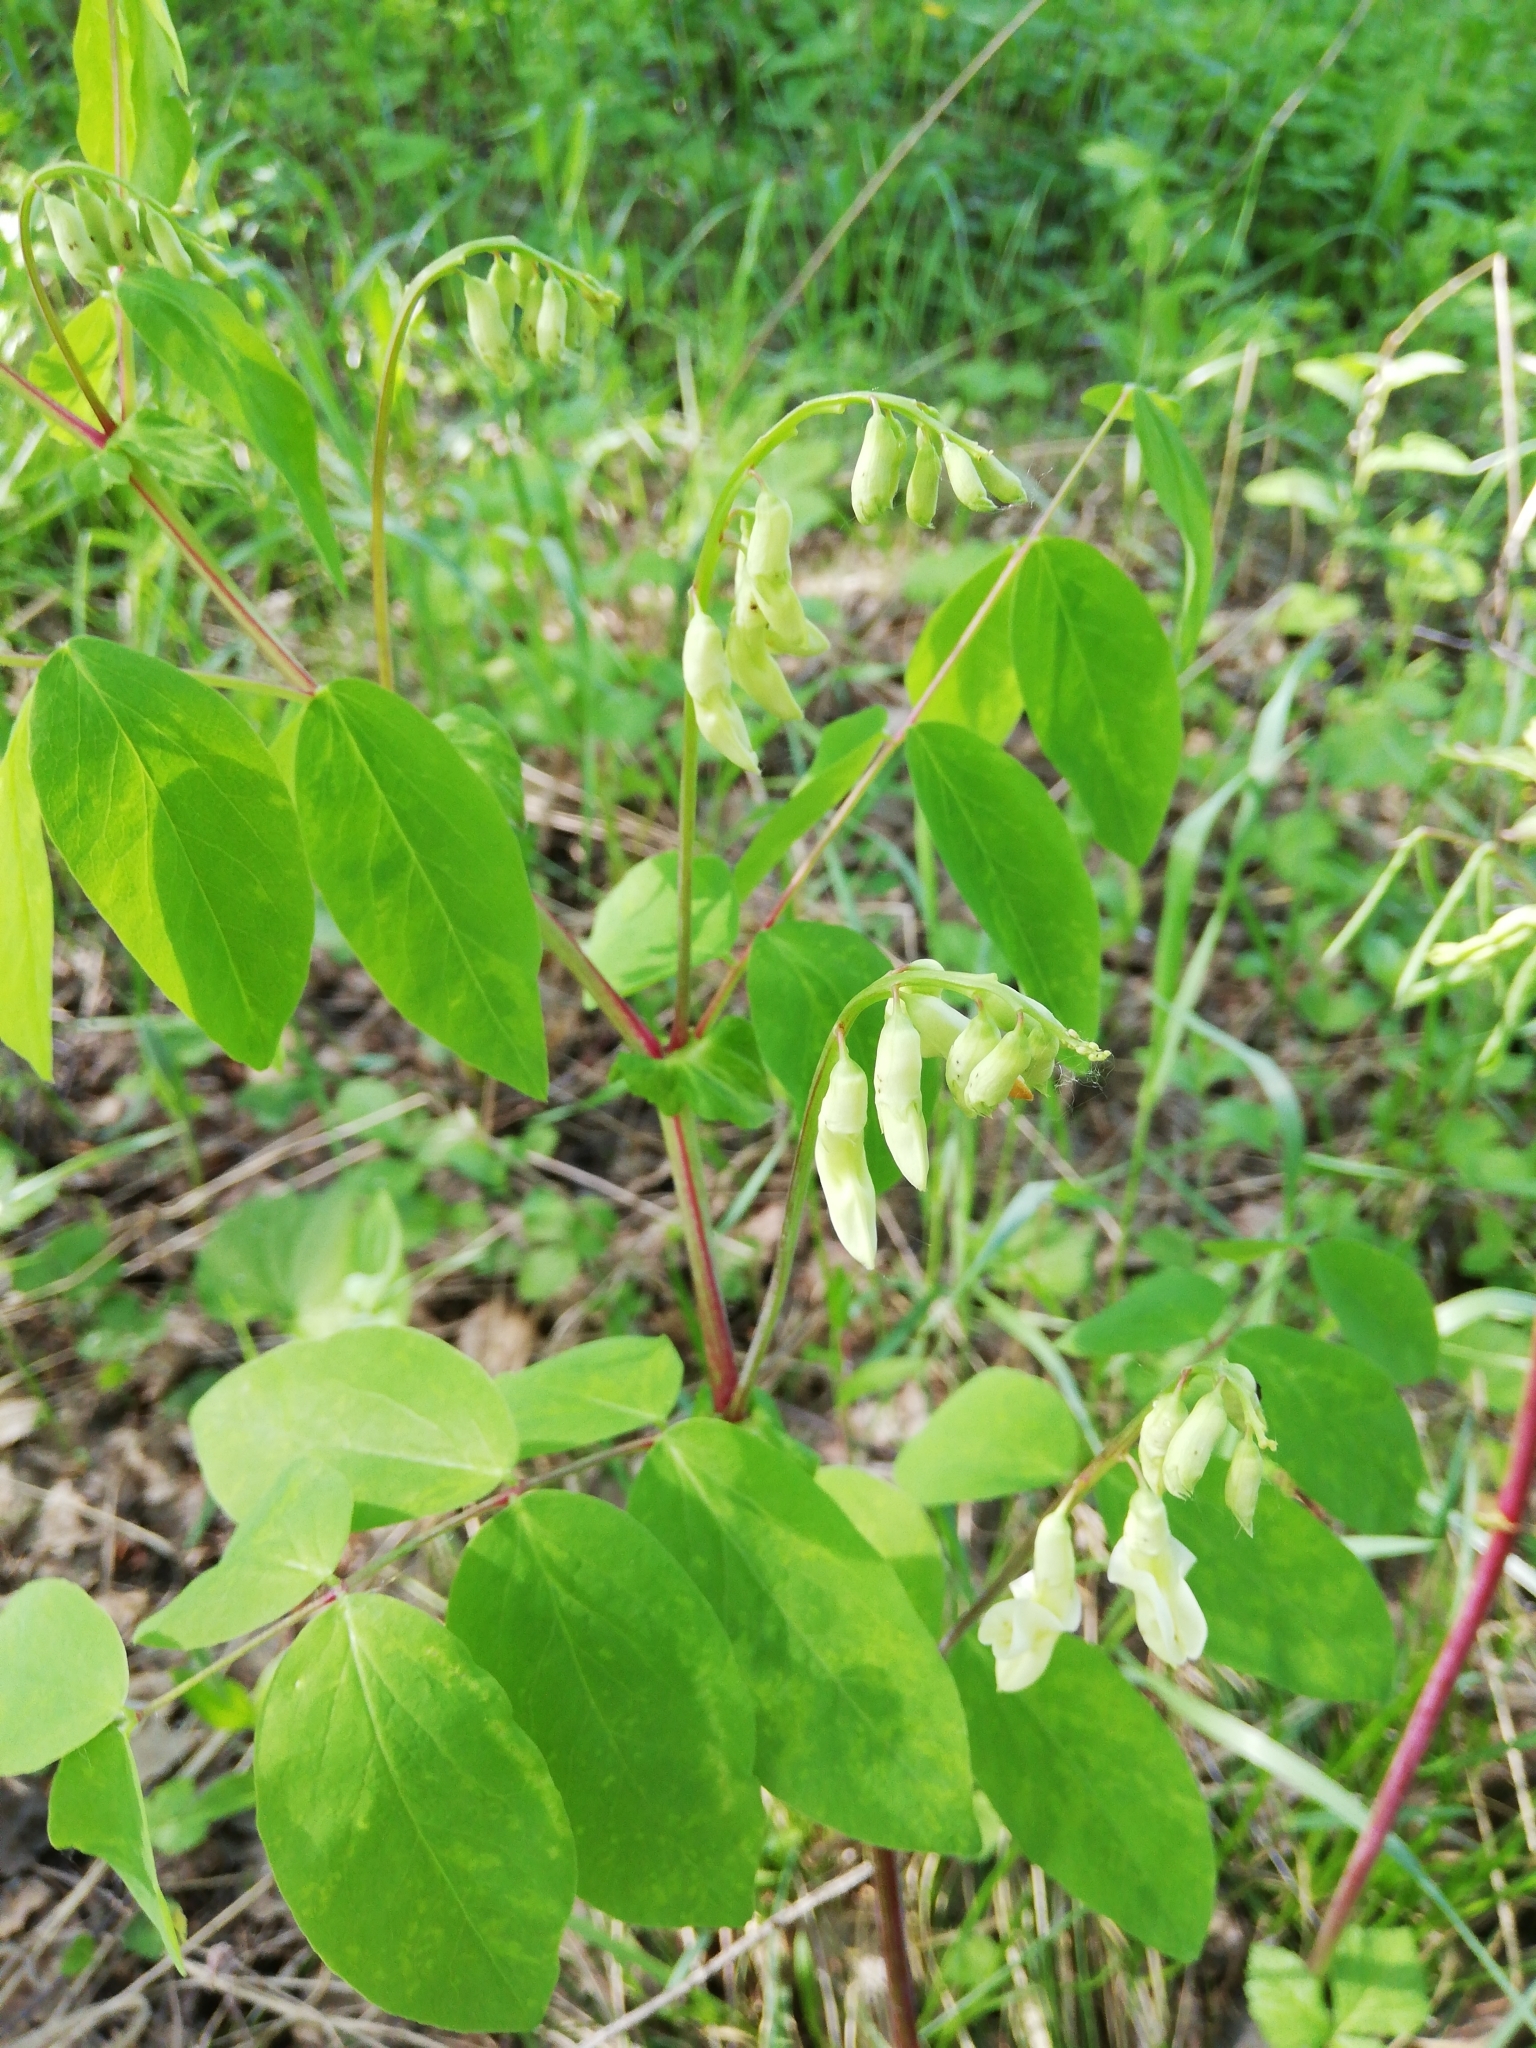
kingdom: Plantae
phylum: Tracheophyta
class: Magnoliopsida
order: Fabales
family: Fabaceae
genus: Lathyrus
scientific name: Lathyrus gmelinii
